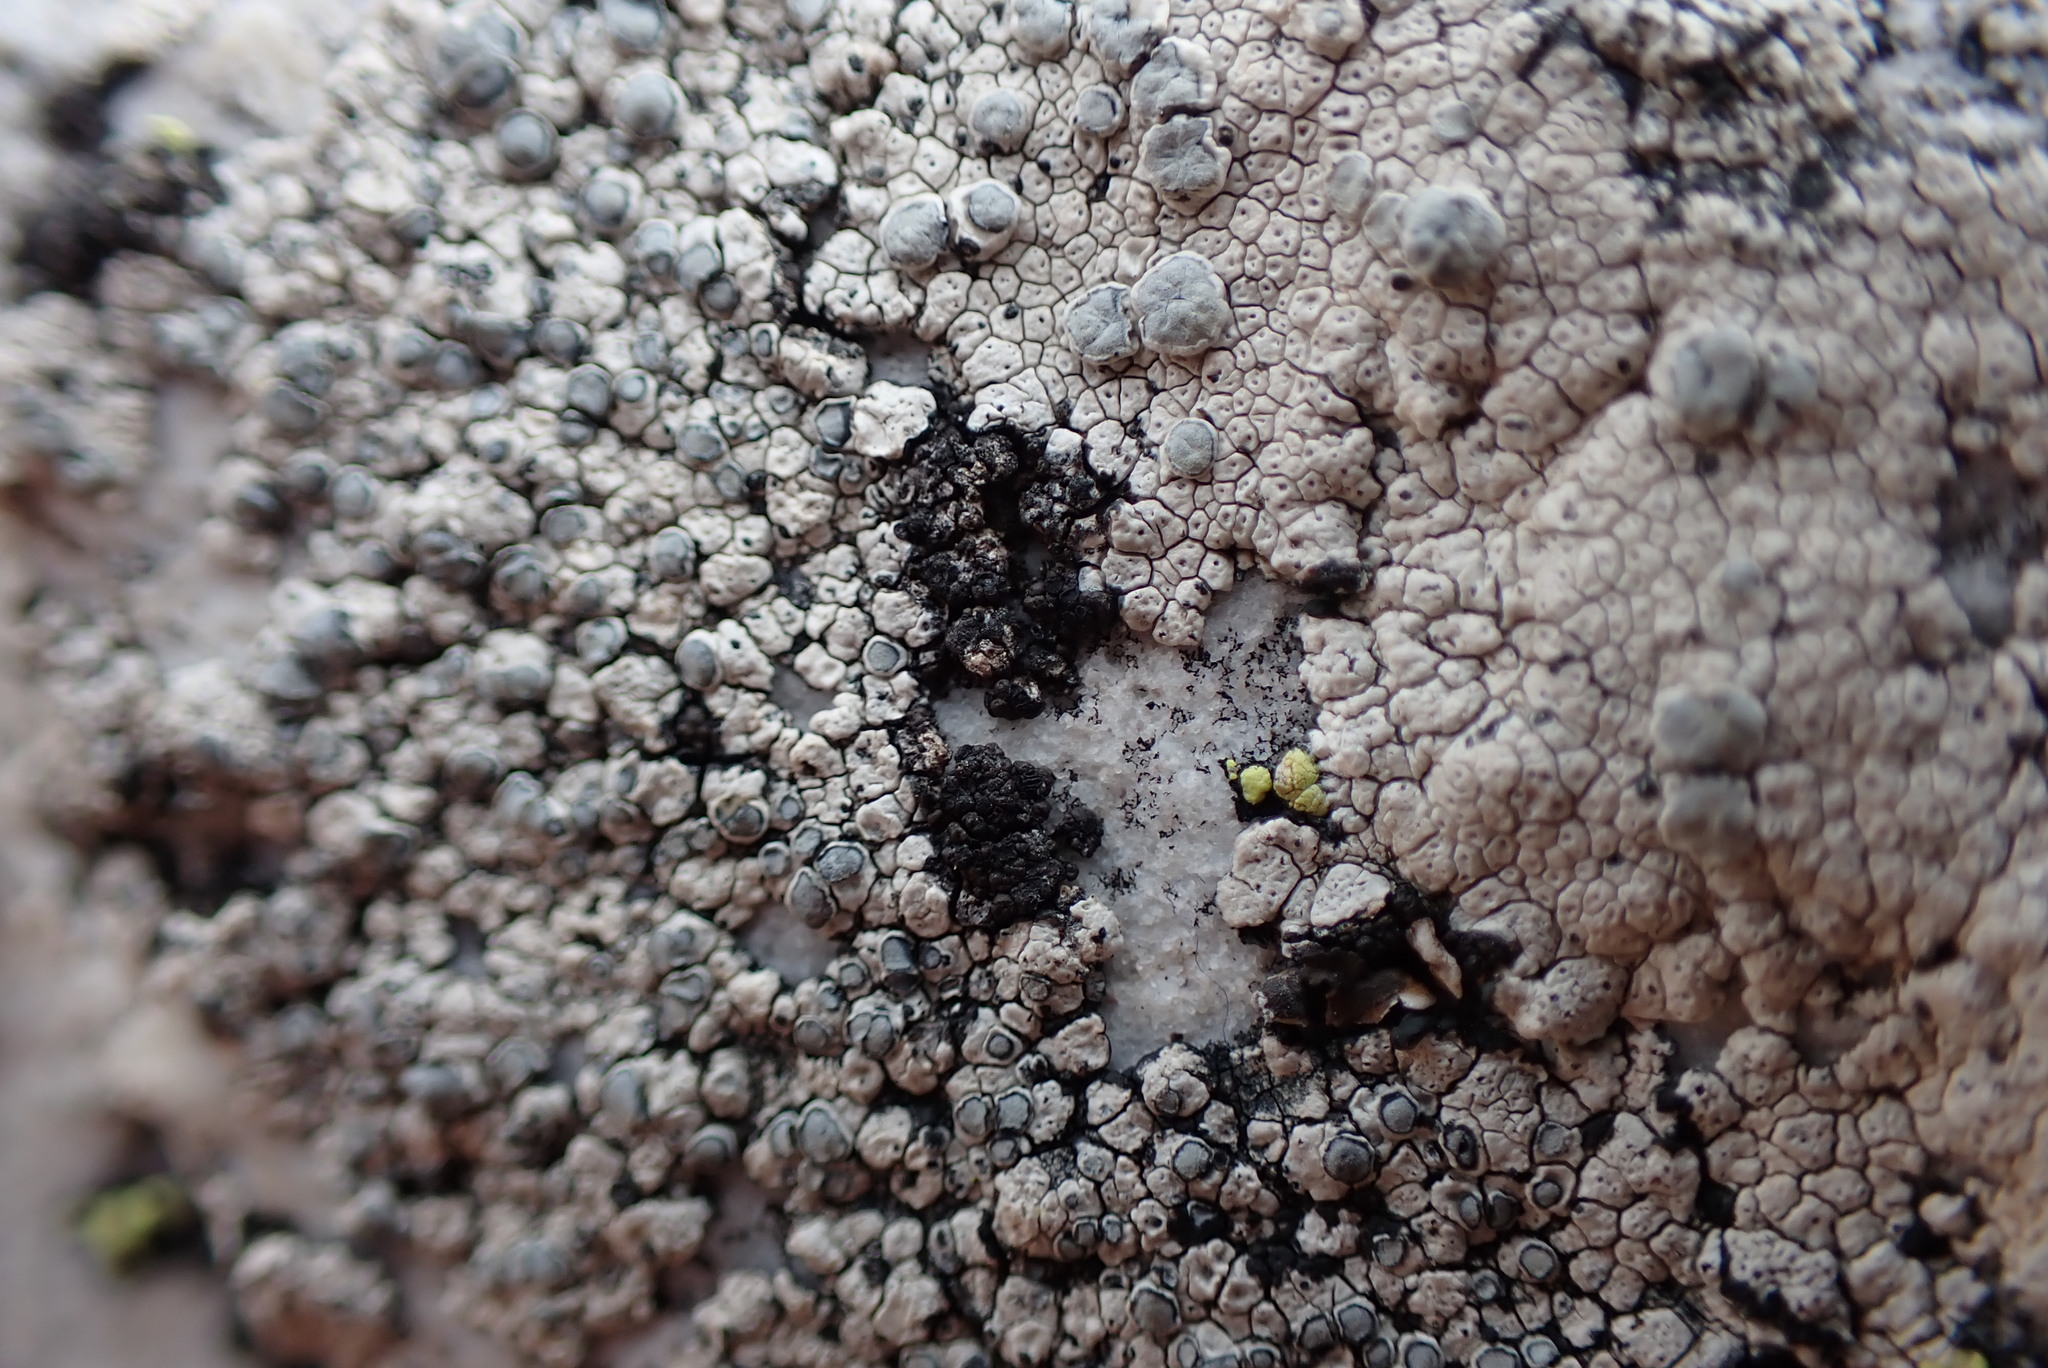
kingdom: Fungi
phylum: Ascomycota
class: Lecanoromycetes
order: Baeomycetales
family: Trapeliaceae
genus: Lambiella
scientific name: Lambiella insularis
